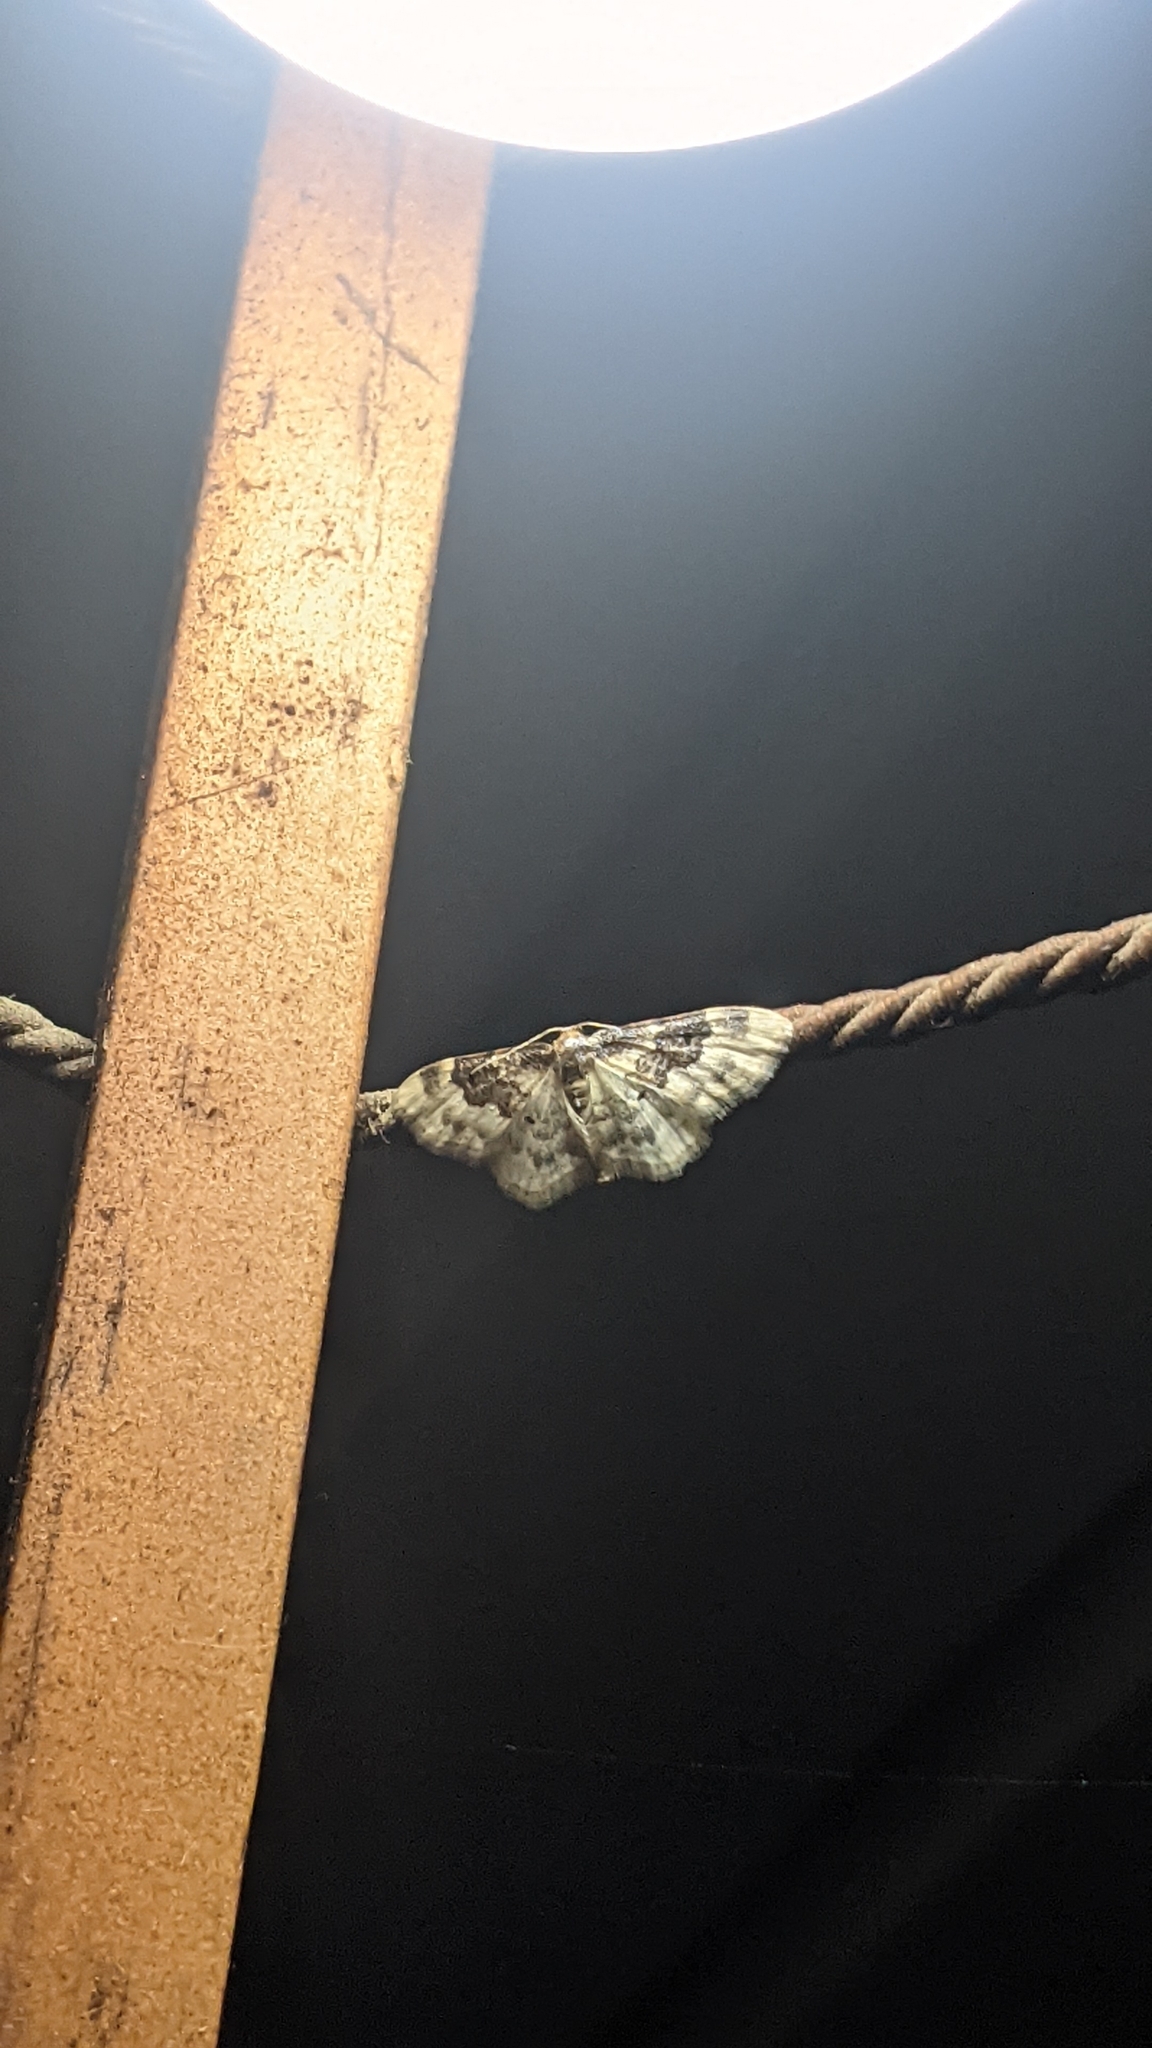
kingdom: Animalia
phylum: Arthropoda
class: Insecta
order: Lepidoptera
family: Geometridae
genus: Idaea
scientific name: Idaea rusticata
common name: Least carpet
